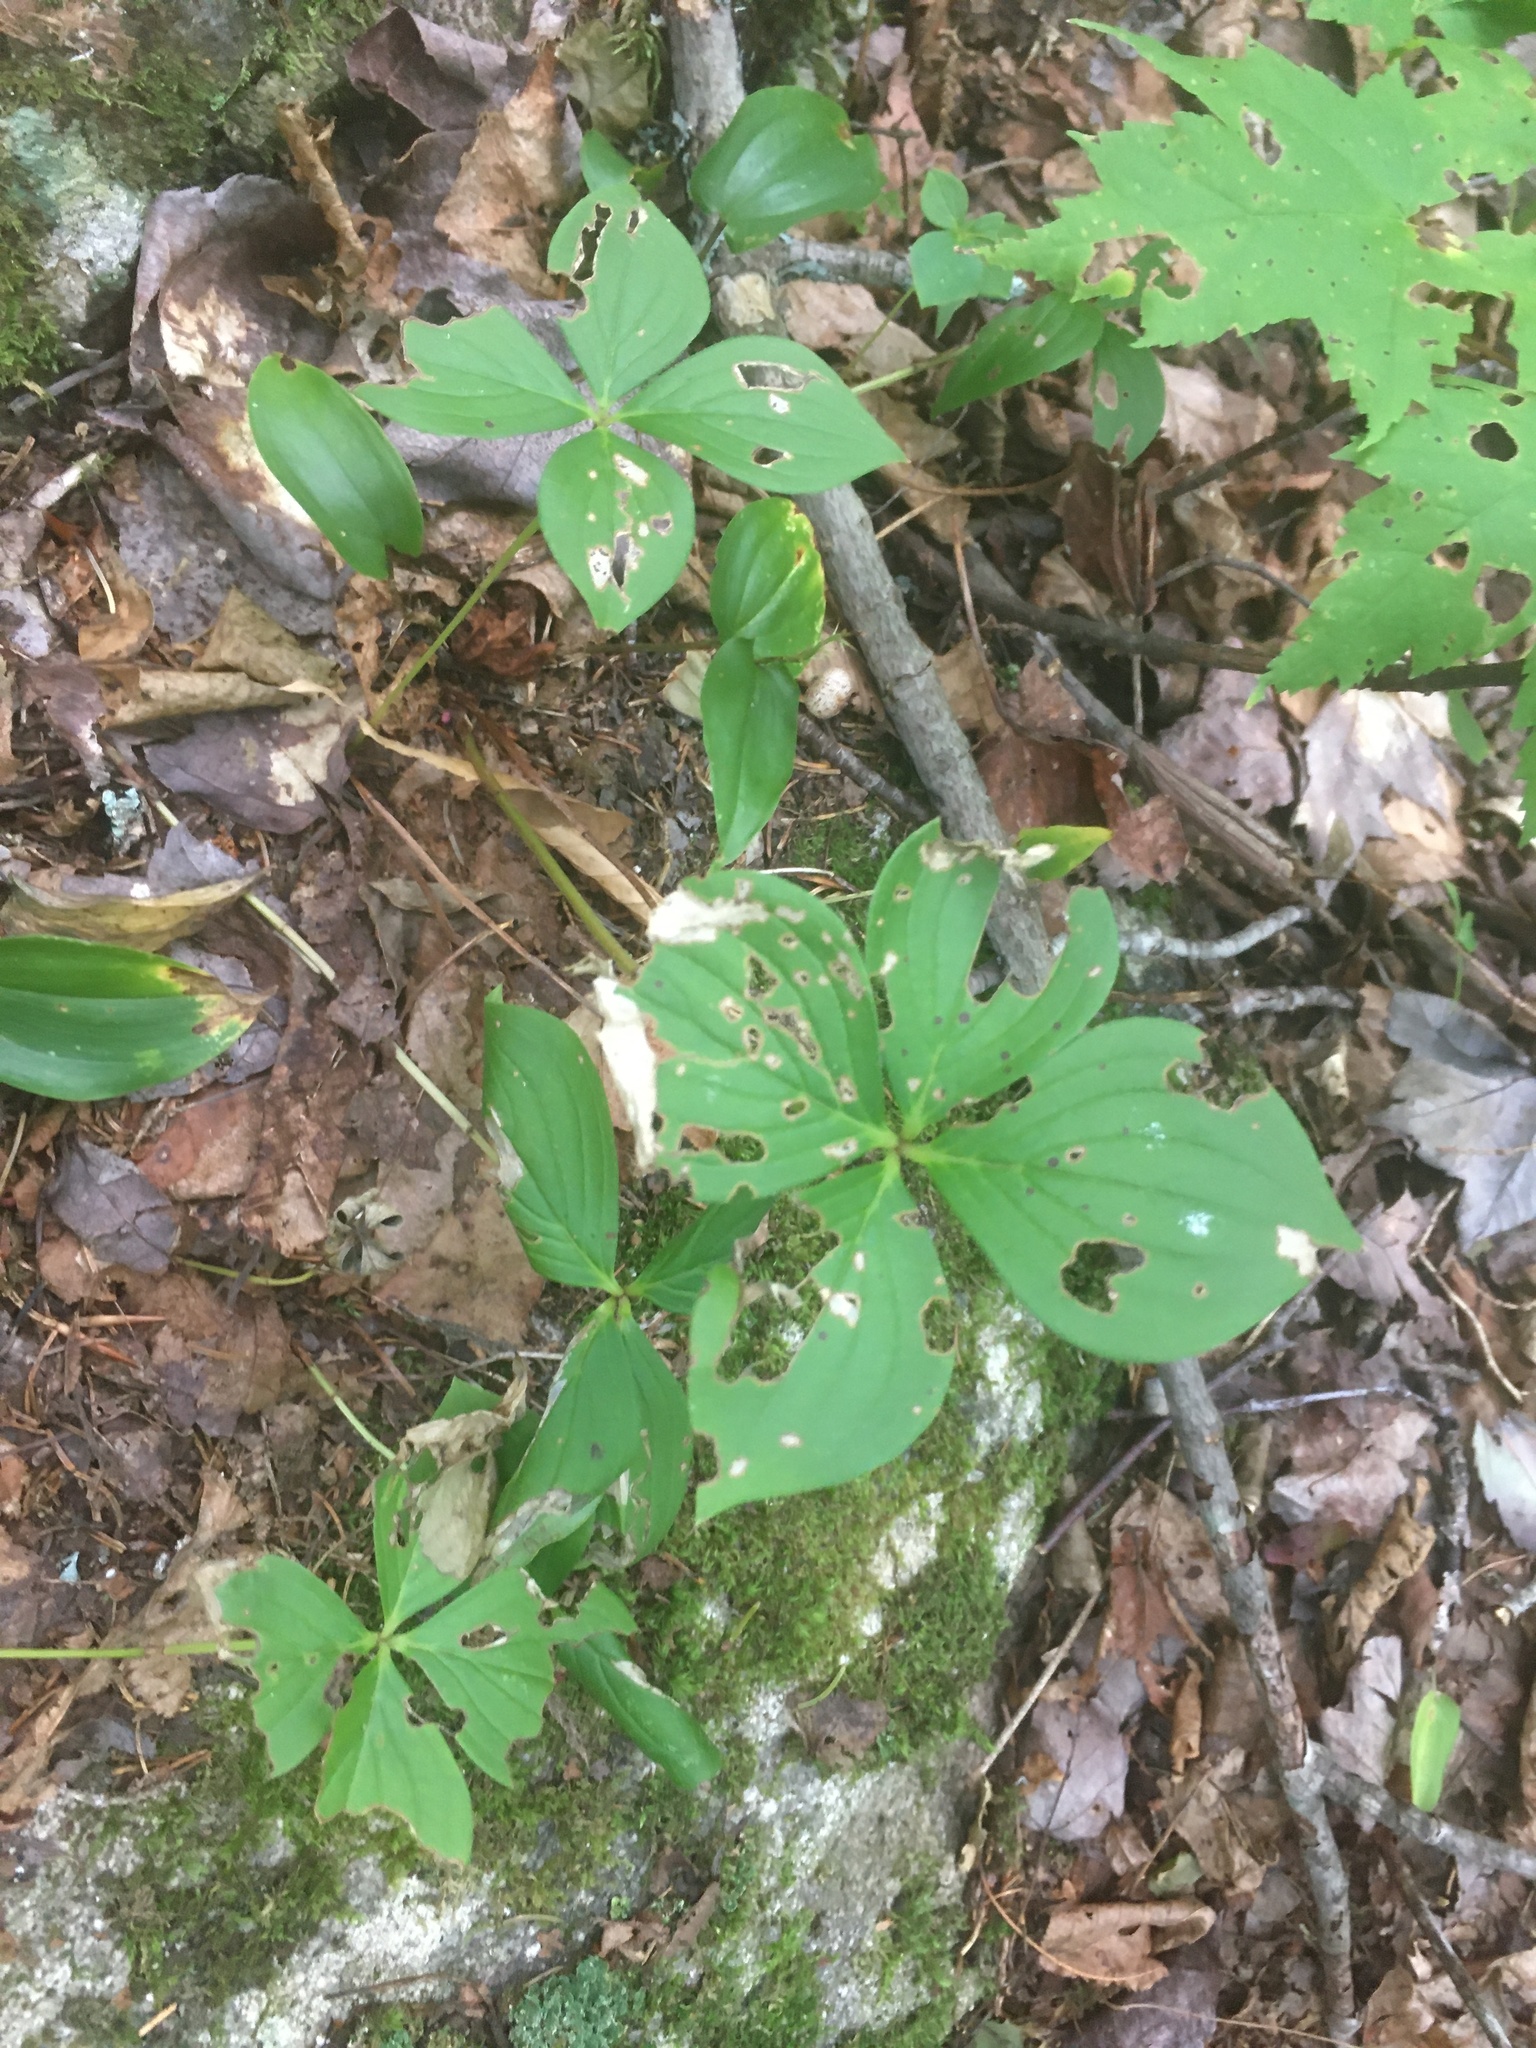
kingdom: Plantae
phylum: Tracheophyta
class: Magnoliopsida
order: Cornales
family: Cornaceae
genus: Cornus
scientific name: Cornus canadensis
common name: Creeping dogwood
